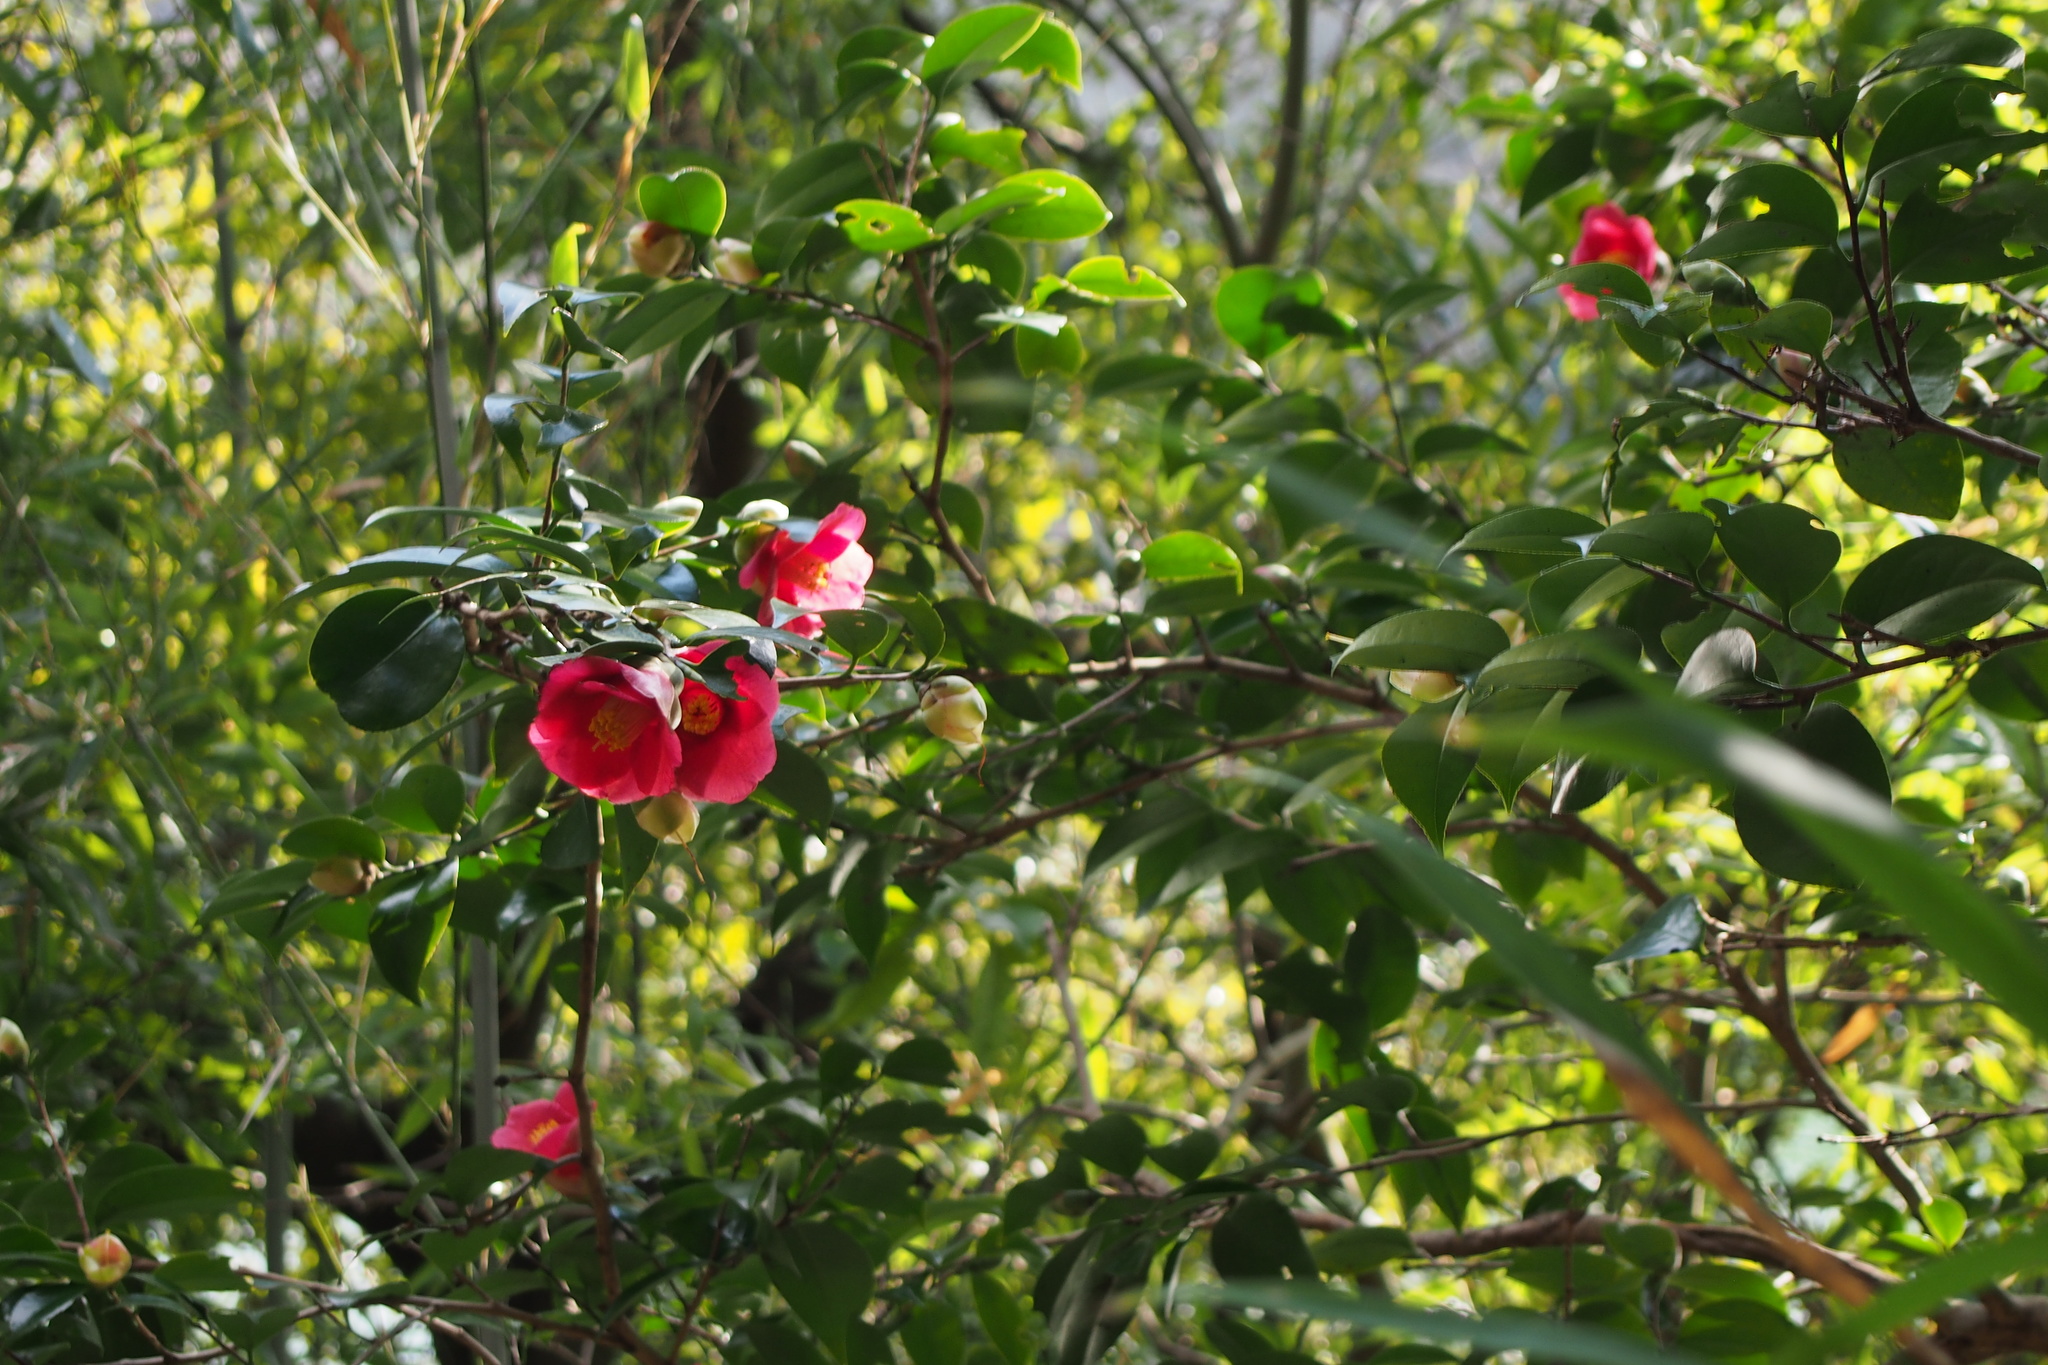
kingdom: Plantae
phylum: Tracheophyta
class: Magnoliopsida
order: Ericales
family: Theaceae
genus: Camellia
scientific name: Camellia japonica
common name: Camellia
